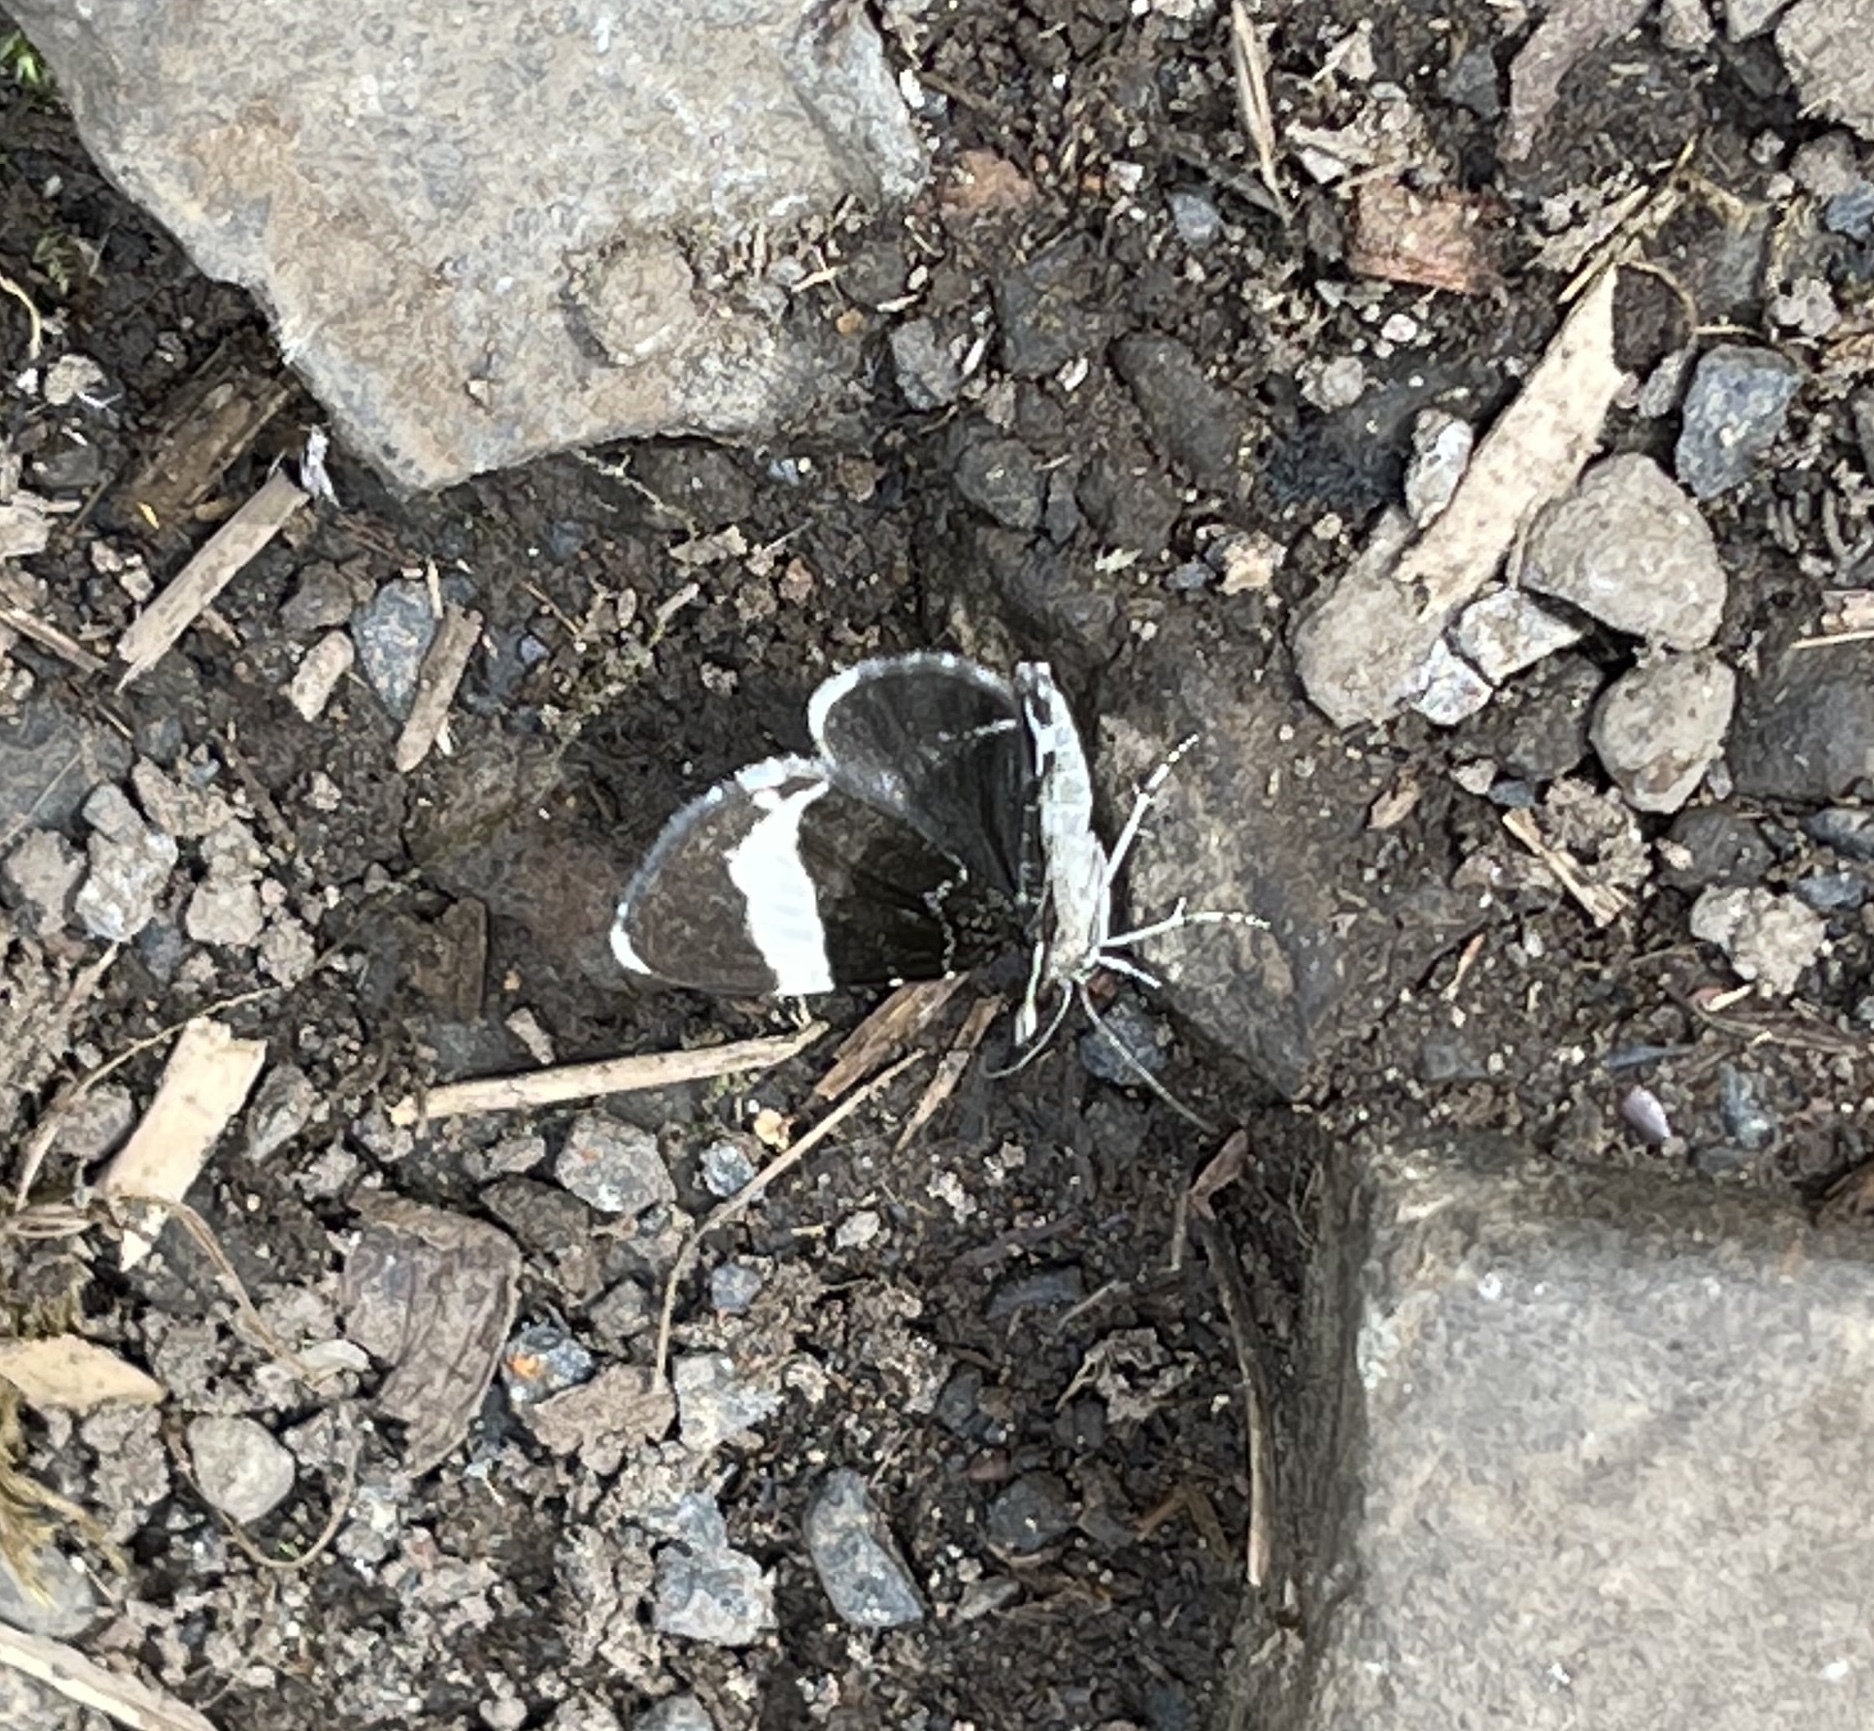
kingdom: Animalia
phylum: Arthropoda
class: Insecta
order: Lepidoptera
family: Geometridae
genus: Trichodezia
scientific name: Trichodezia albovittata
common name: White striped black
